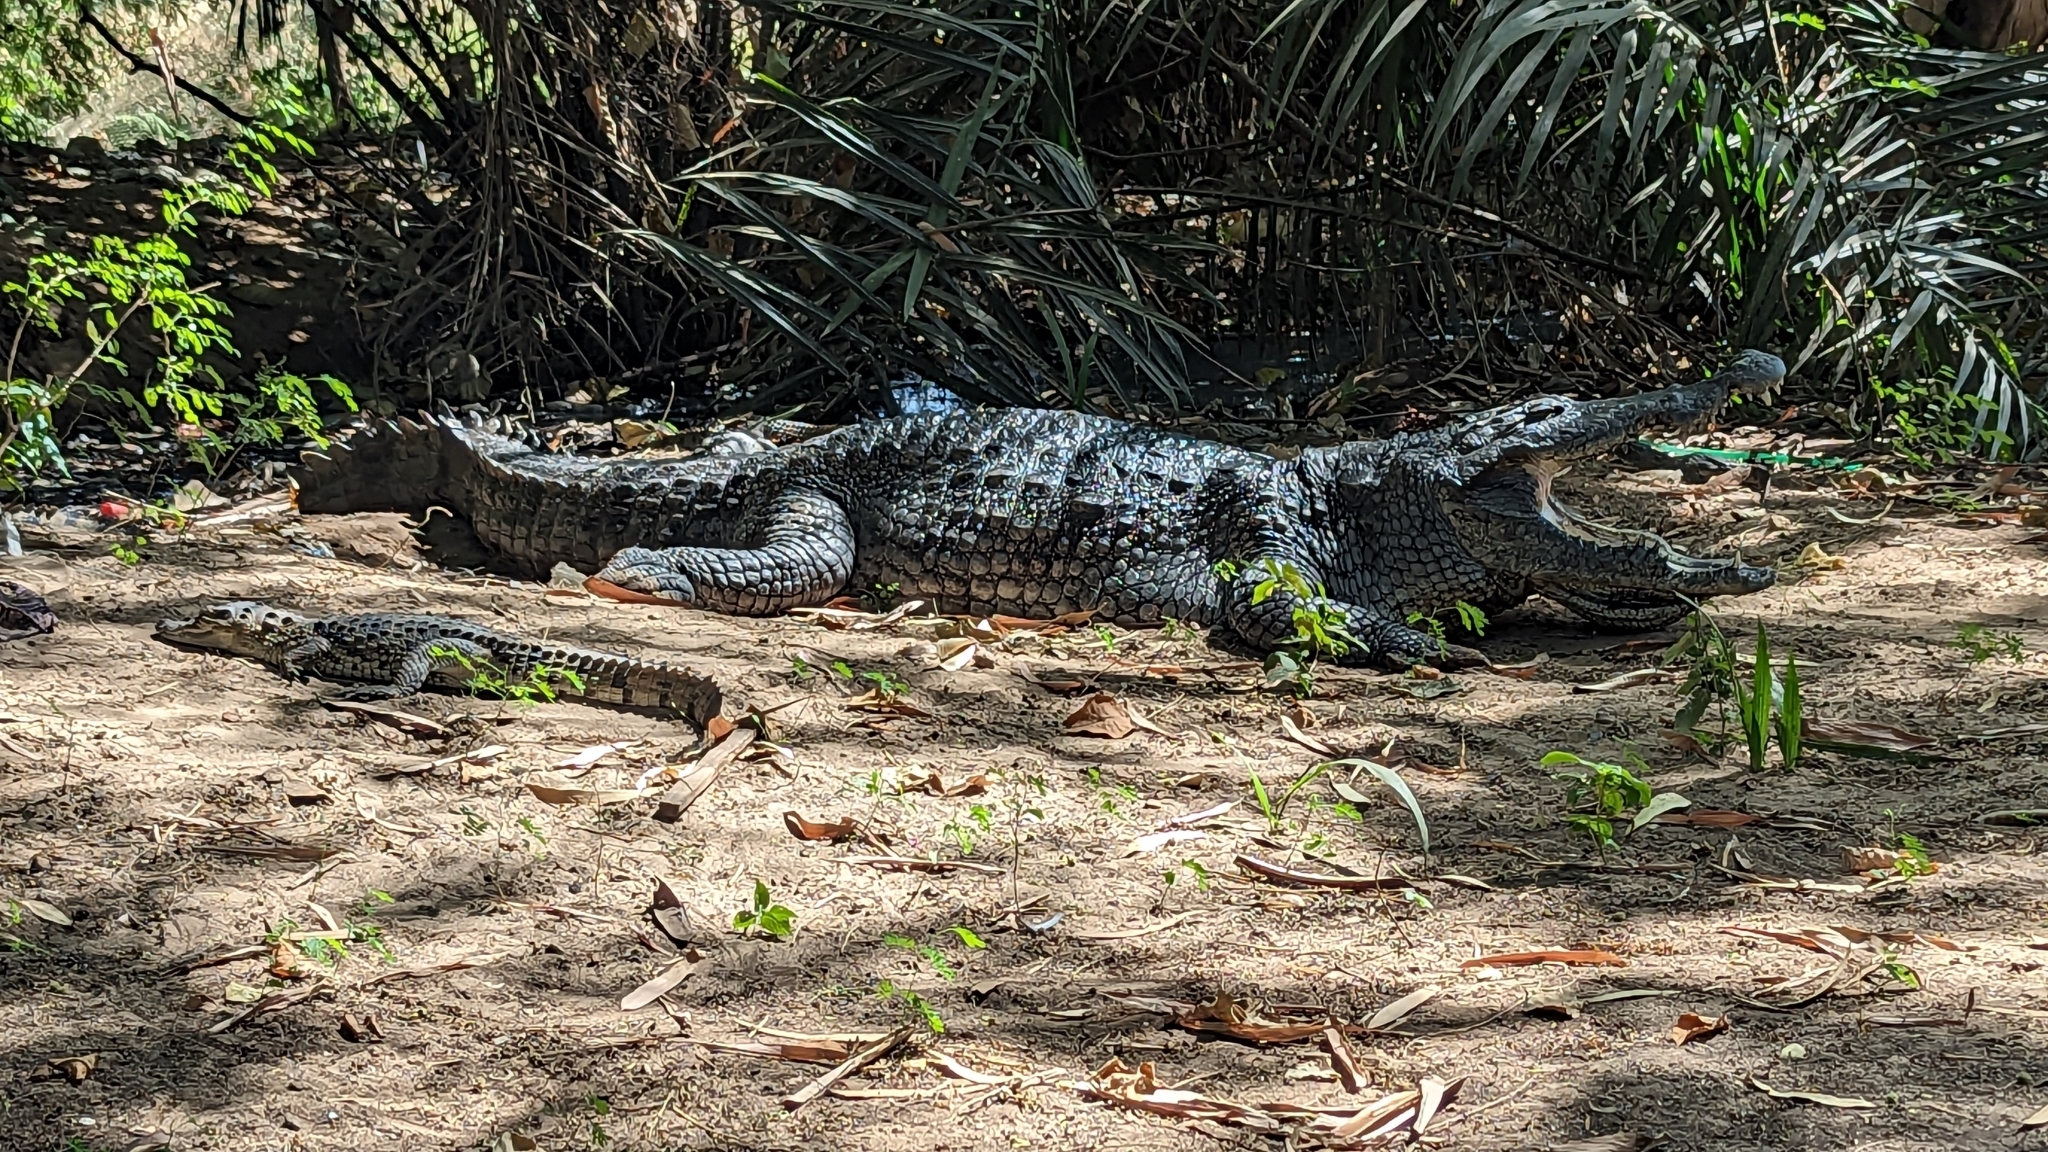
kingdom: Animalia
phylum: Chordata
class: Crocodylia
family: Crocodylidae
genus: Crocodylus
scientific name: Crocodylus suchus
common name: West african crocodile
